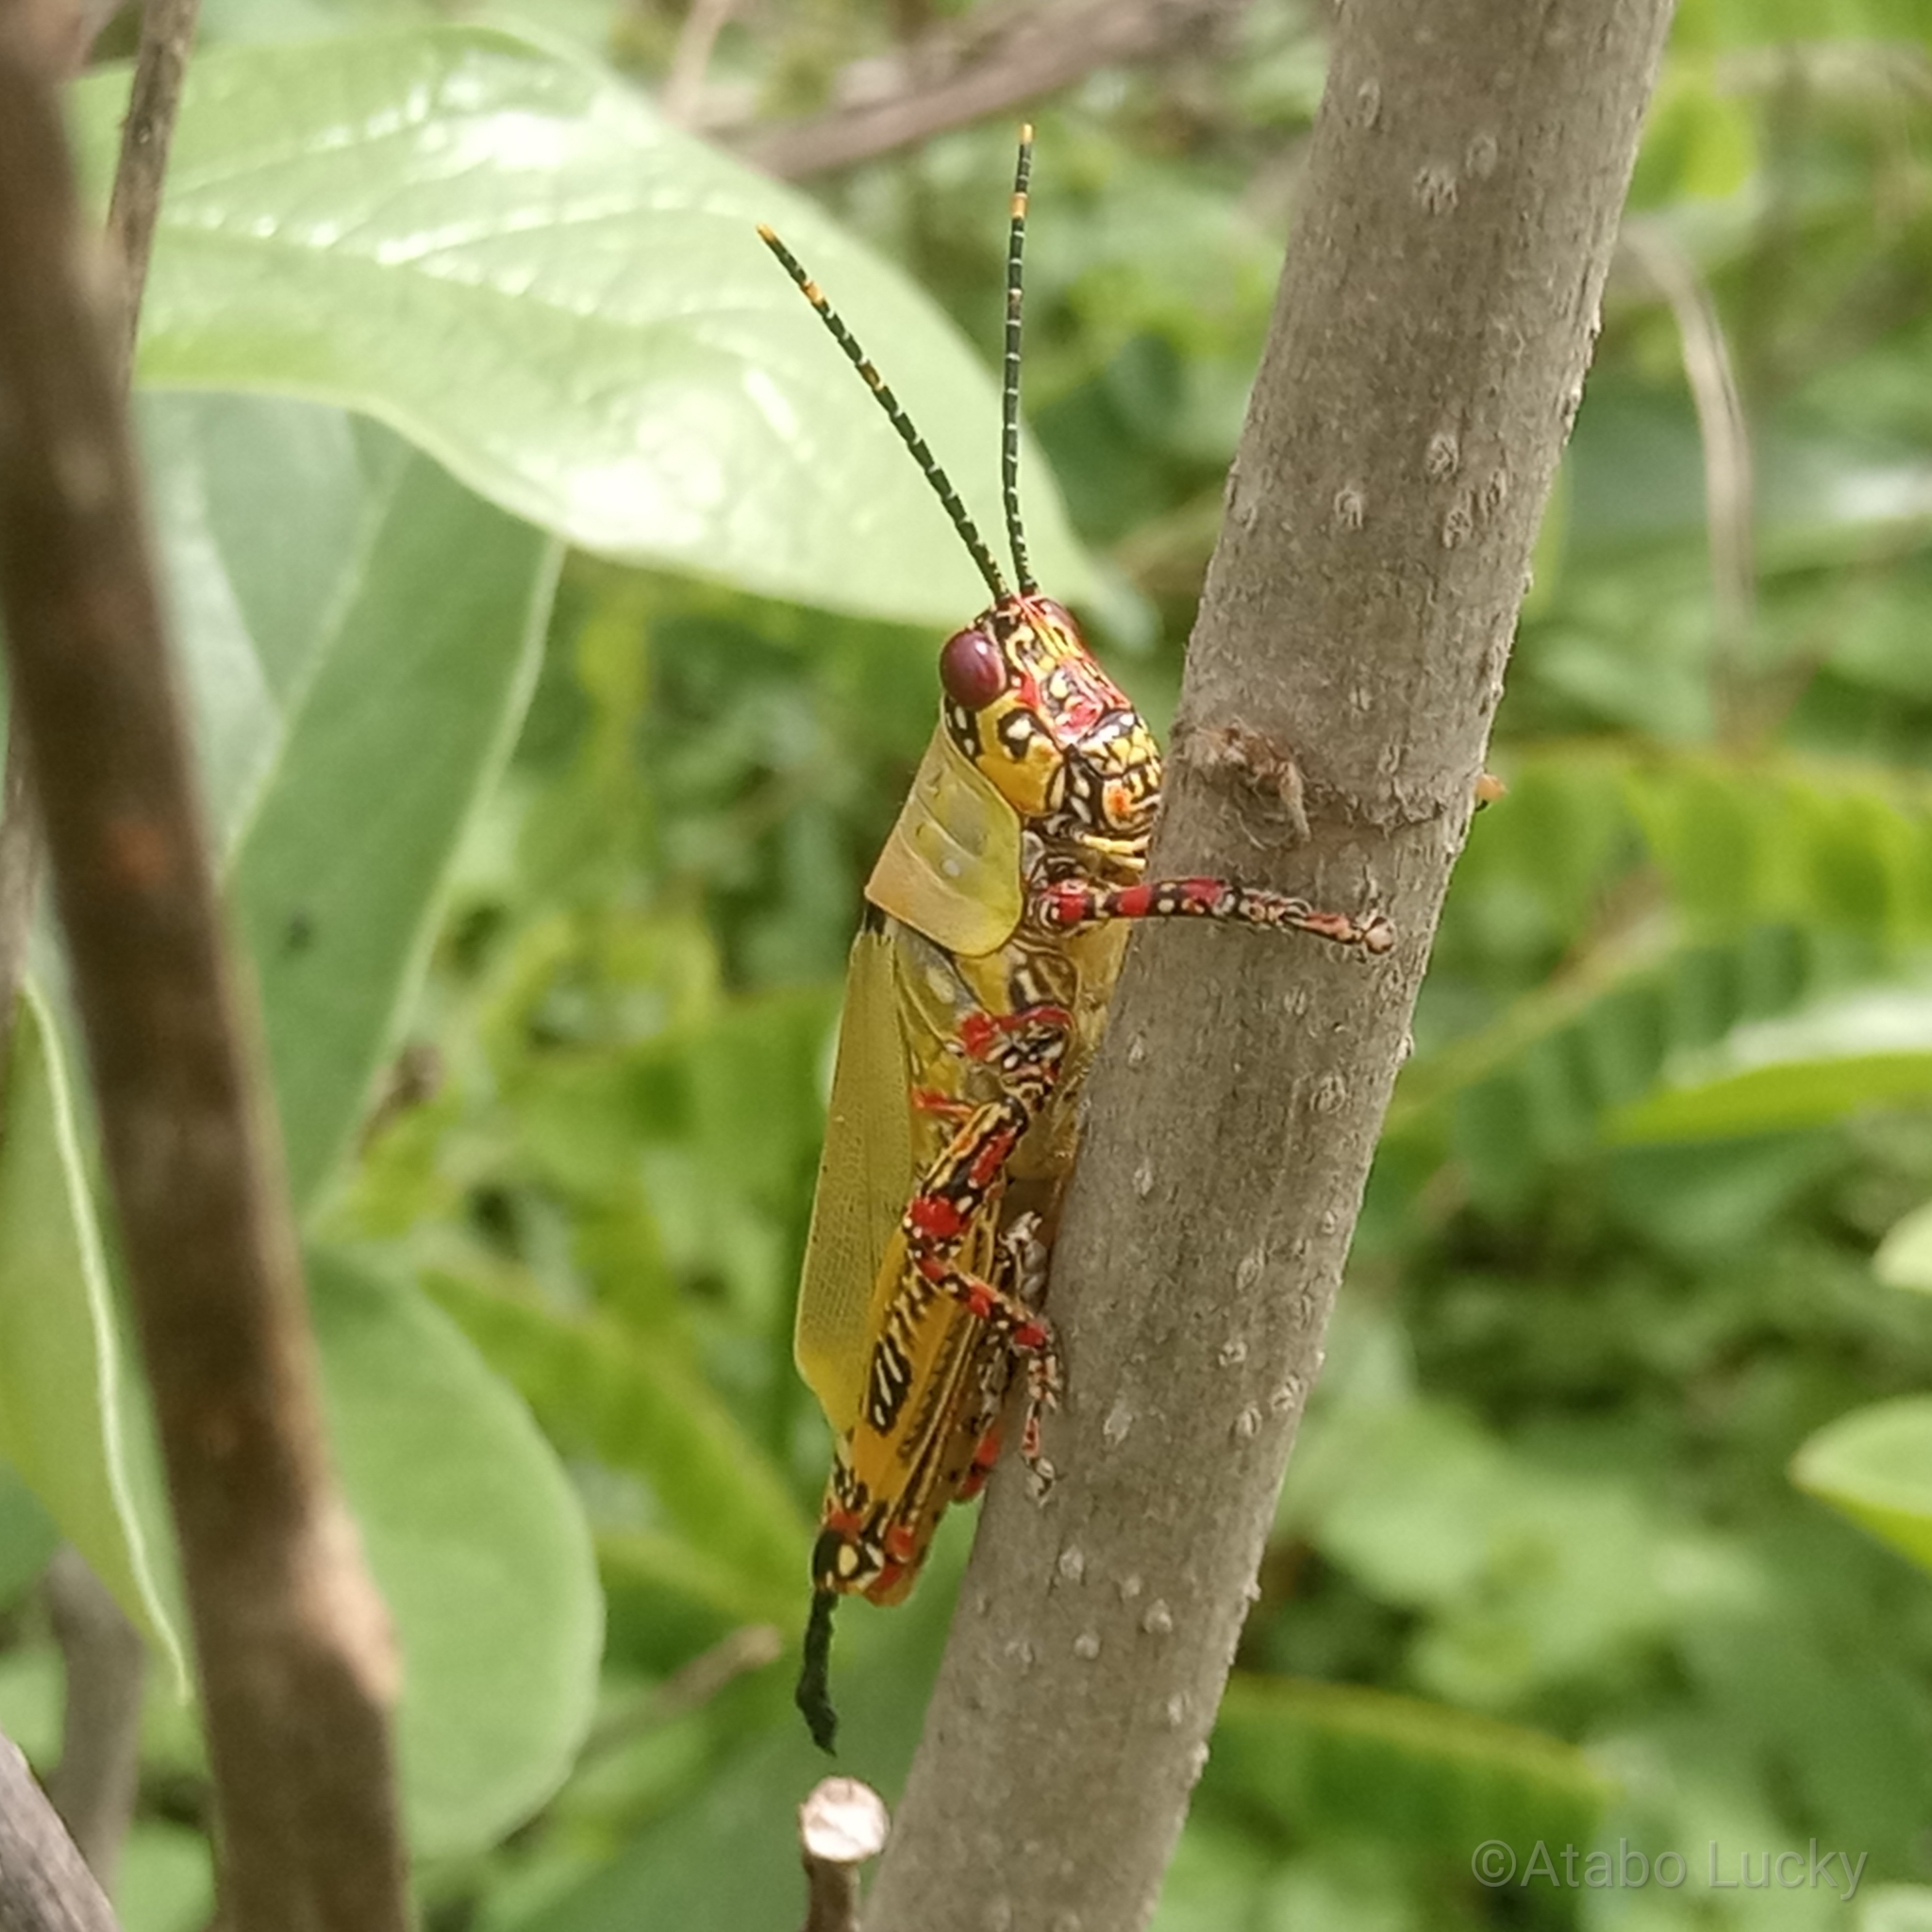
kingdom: Animalia
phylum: Arthropoda
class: Insecta
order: Orthoptera
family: Pyrgomorphidae
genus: Zonocerus
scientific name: Zonocerus variegatus
